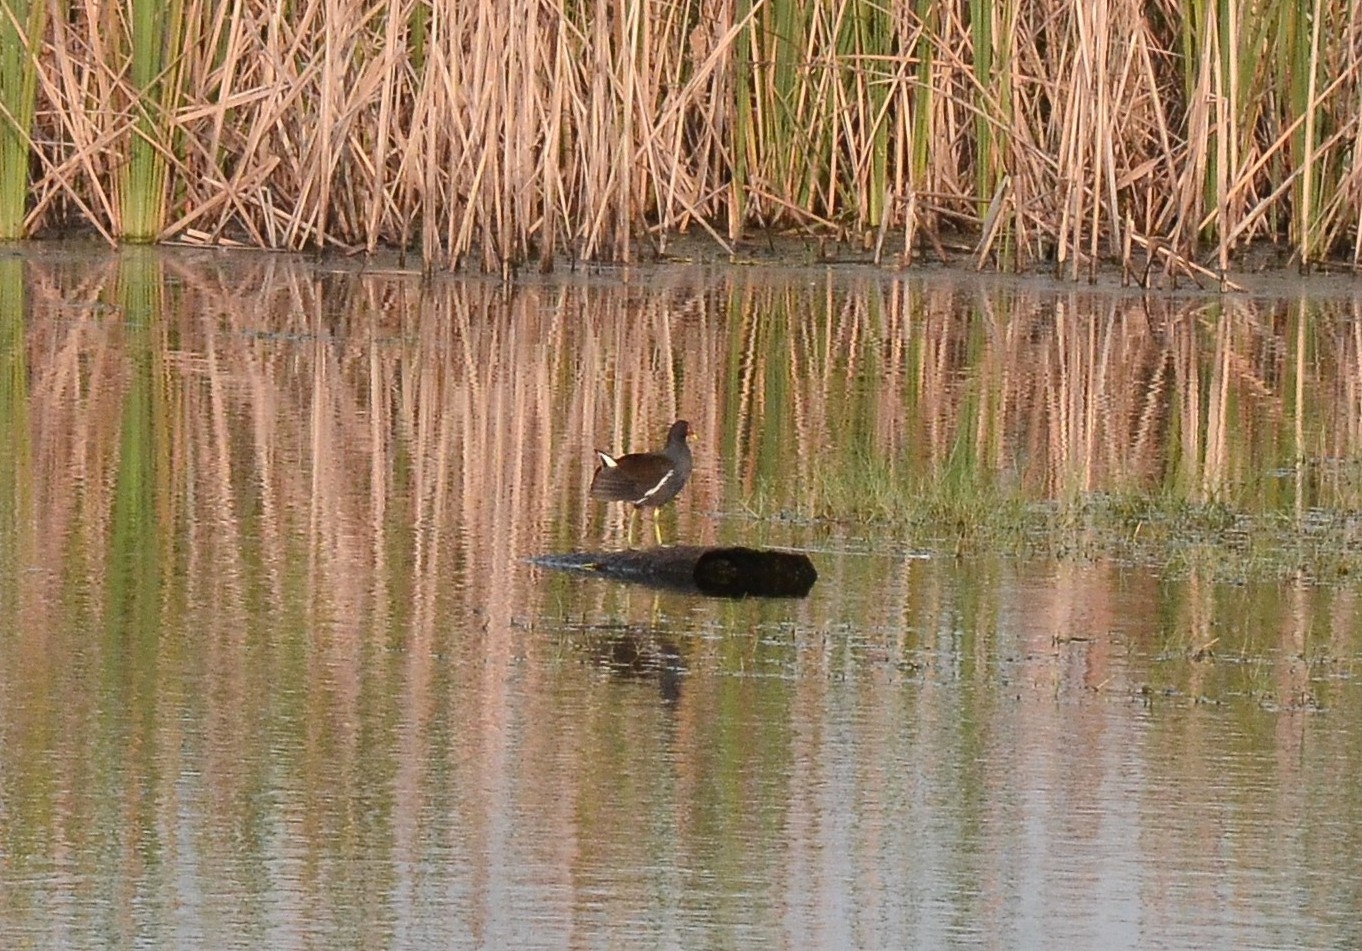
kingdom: Animalia
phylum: Chordata
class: Aves
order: Gruiformes
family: Rallidae
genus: Gallinula
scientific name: Gallinula chloropus
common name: Common moorhen
